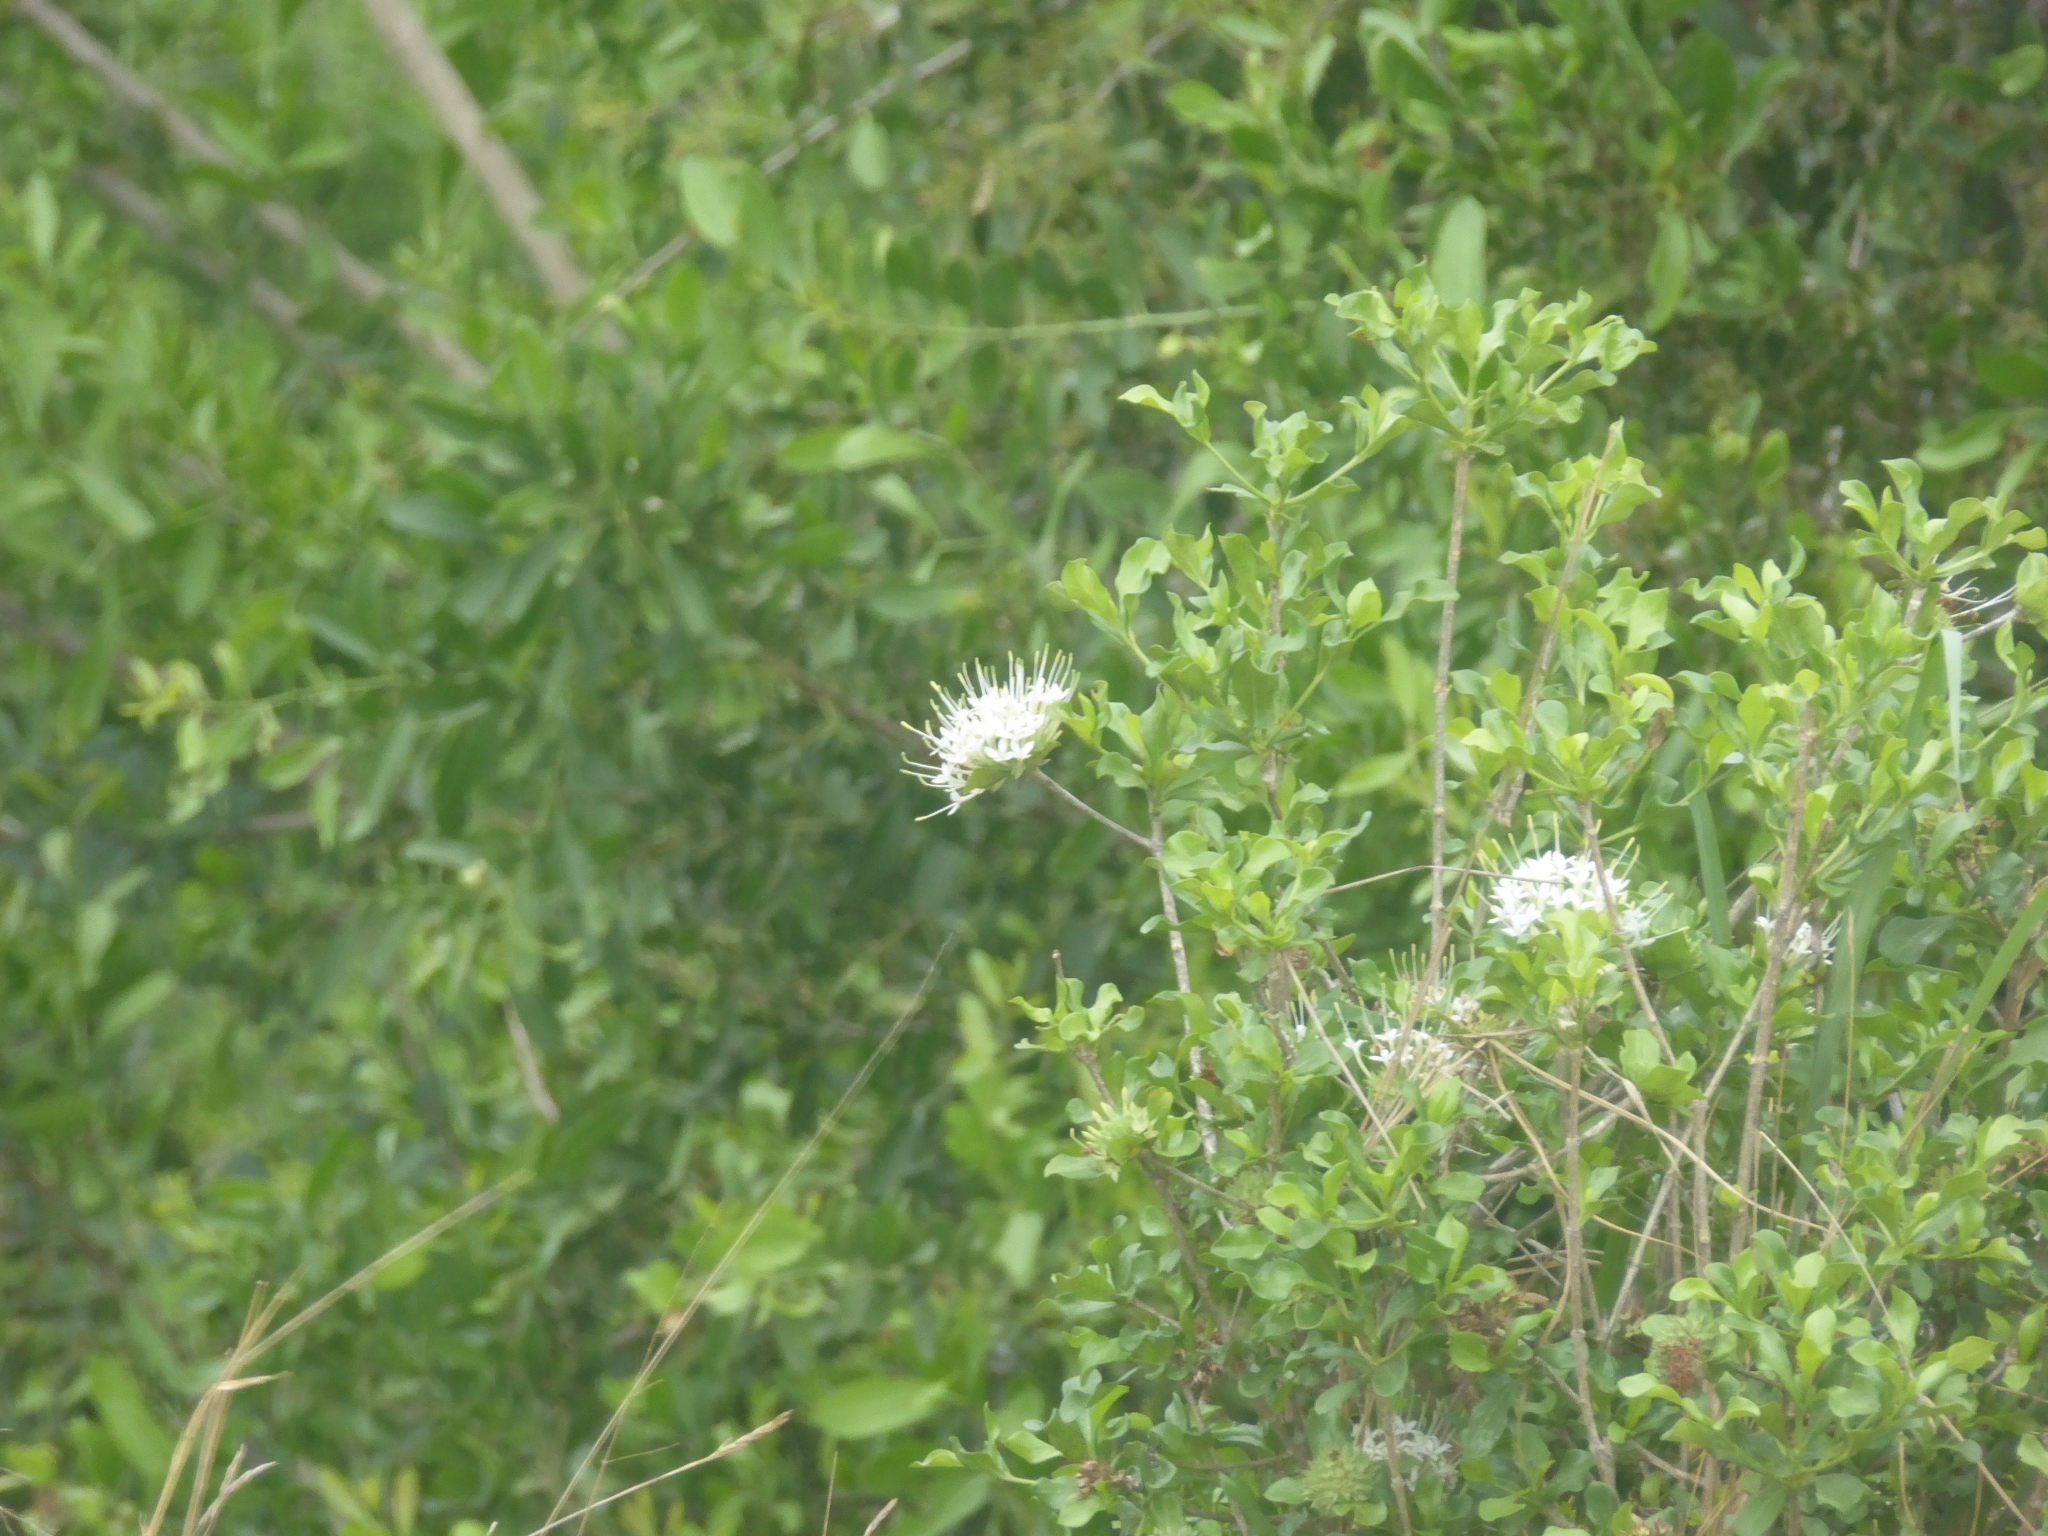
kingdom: Plantae
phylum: Tracheophyta
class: Magnoliopsida
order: Gentianales
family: Rubiaceae
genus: Pavetta
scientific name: Pavetta catophylla
